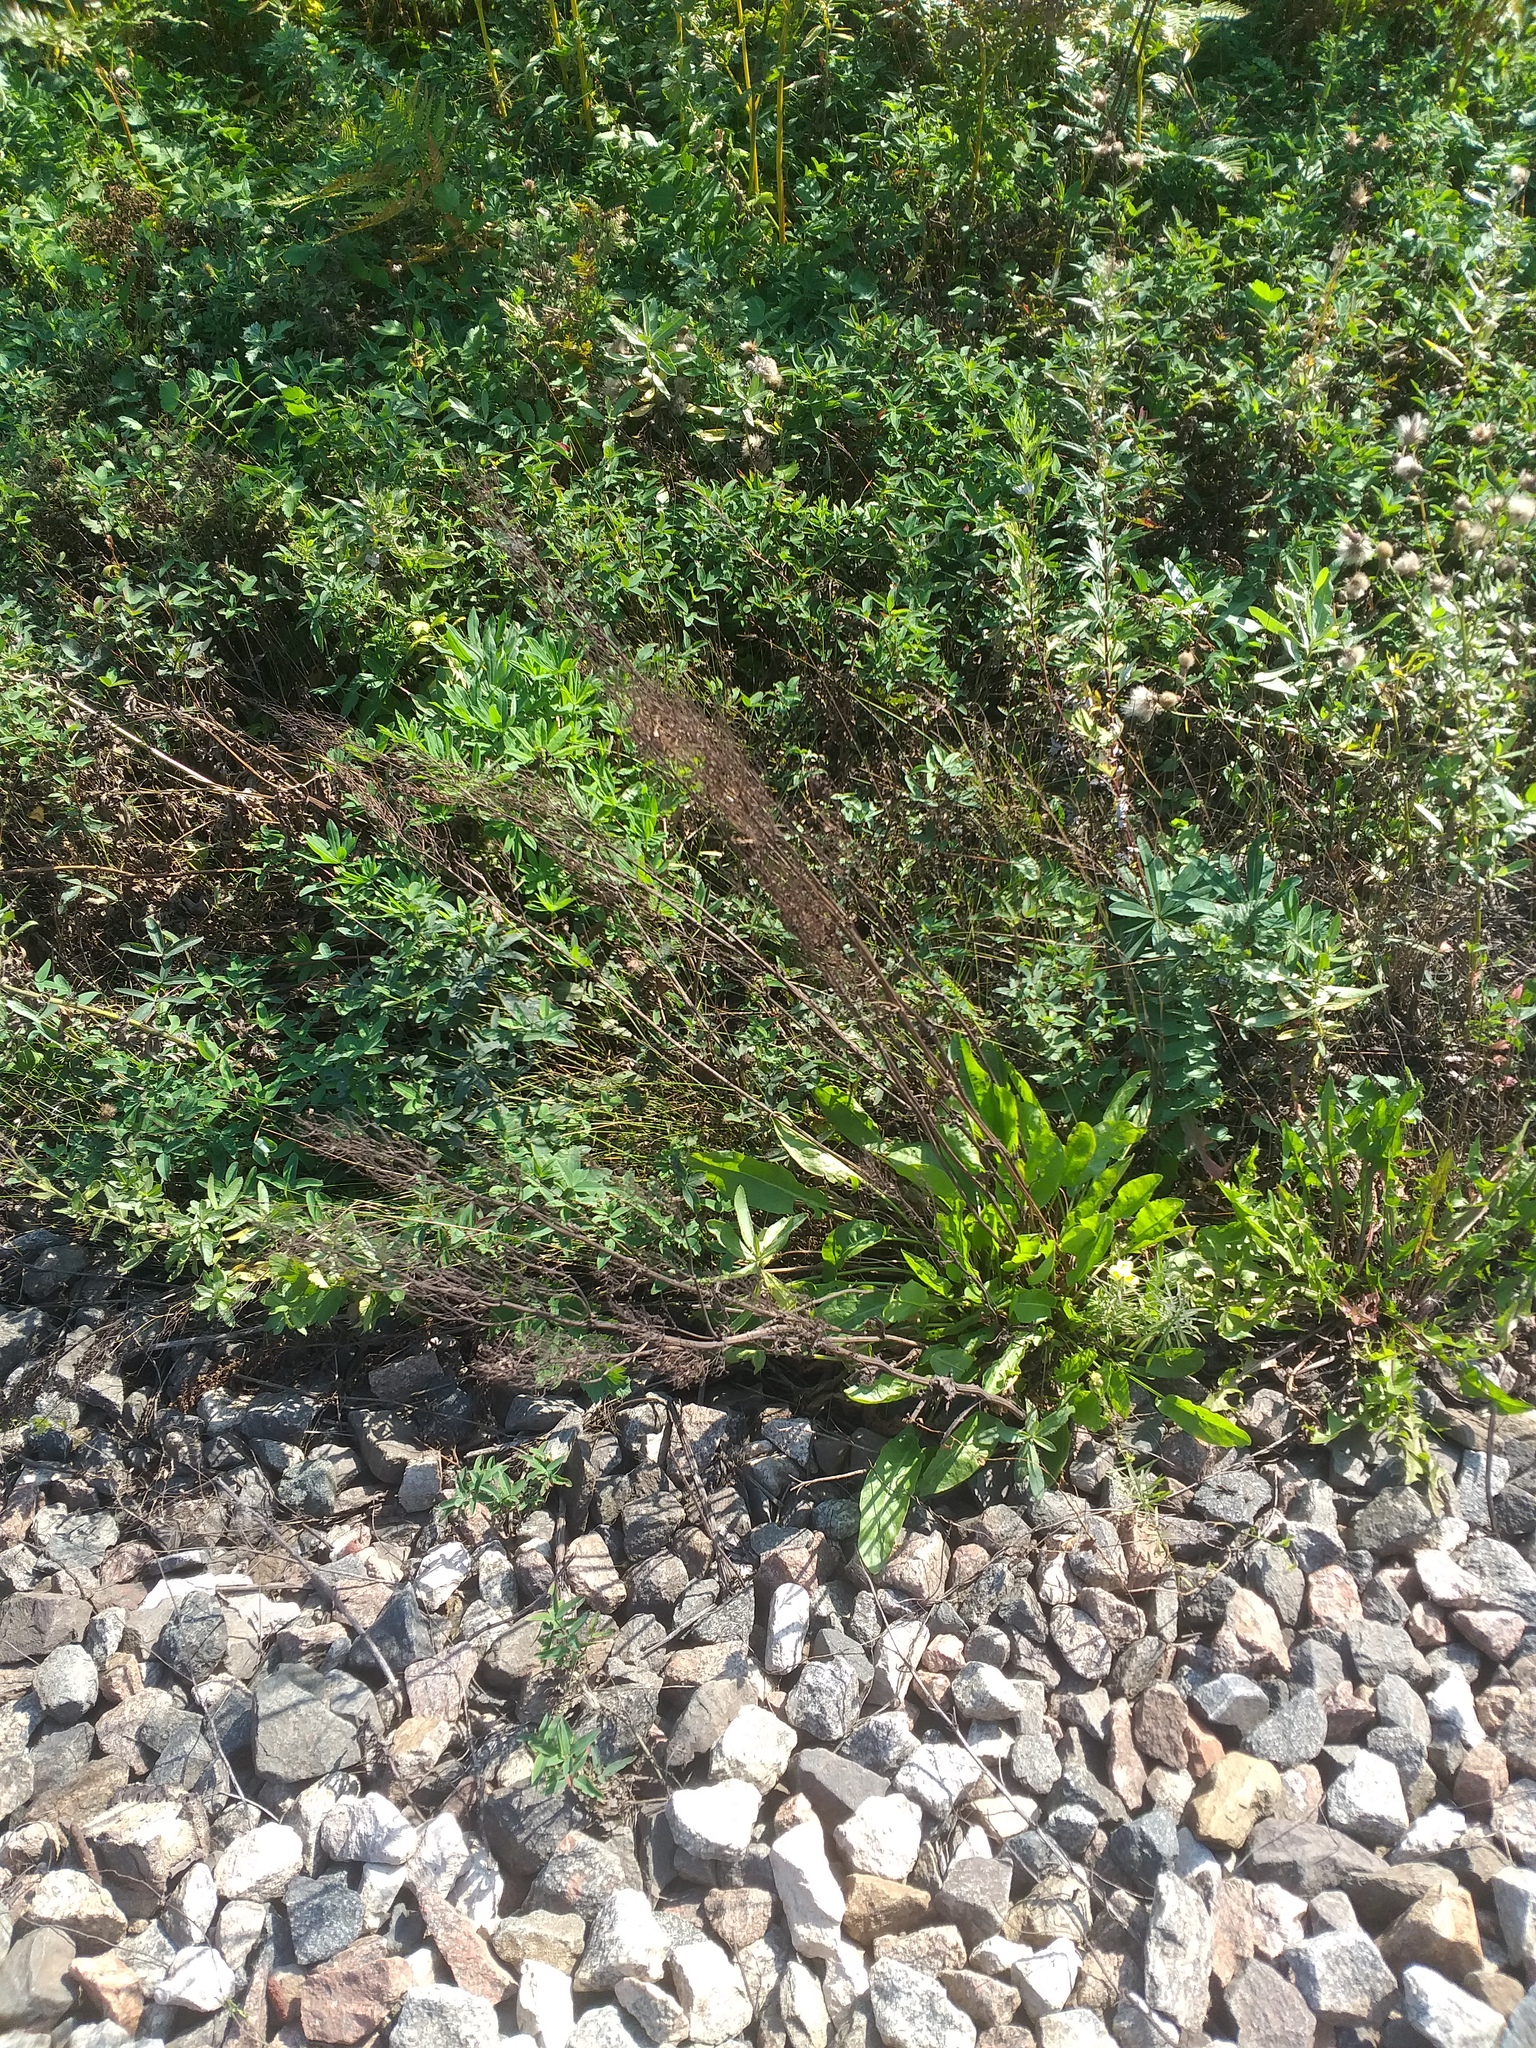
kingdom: Plantae
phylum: Tracheophyta
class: Magnoliopsida
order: Caryophyllales
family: Polygonaceae
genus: Rumex
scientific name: Rumex thyrsiflorus
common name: Garden sorrel
